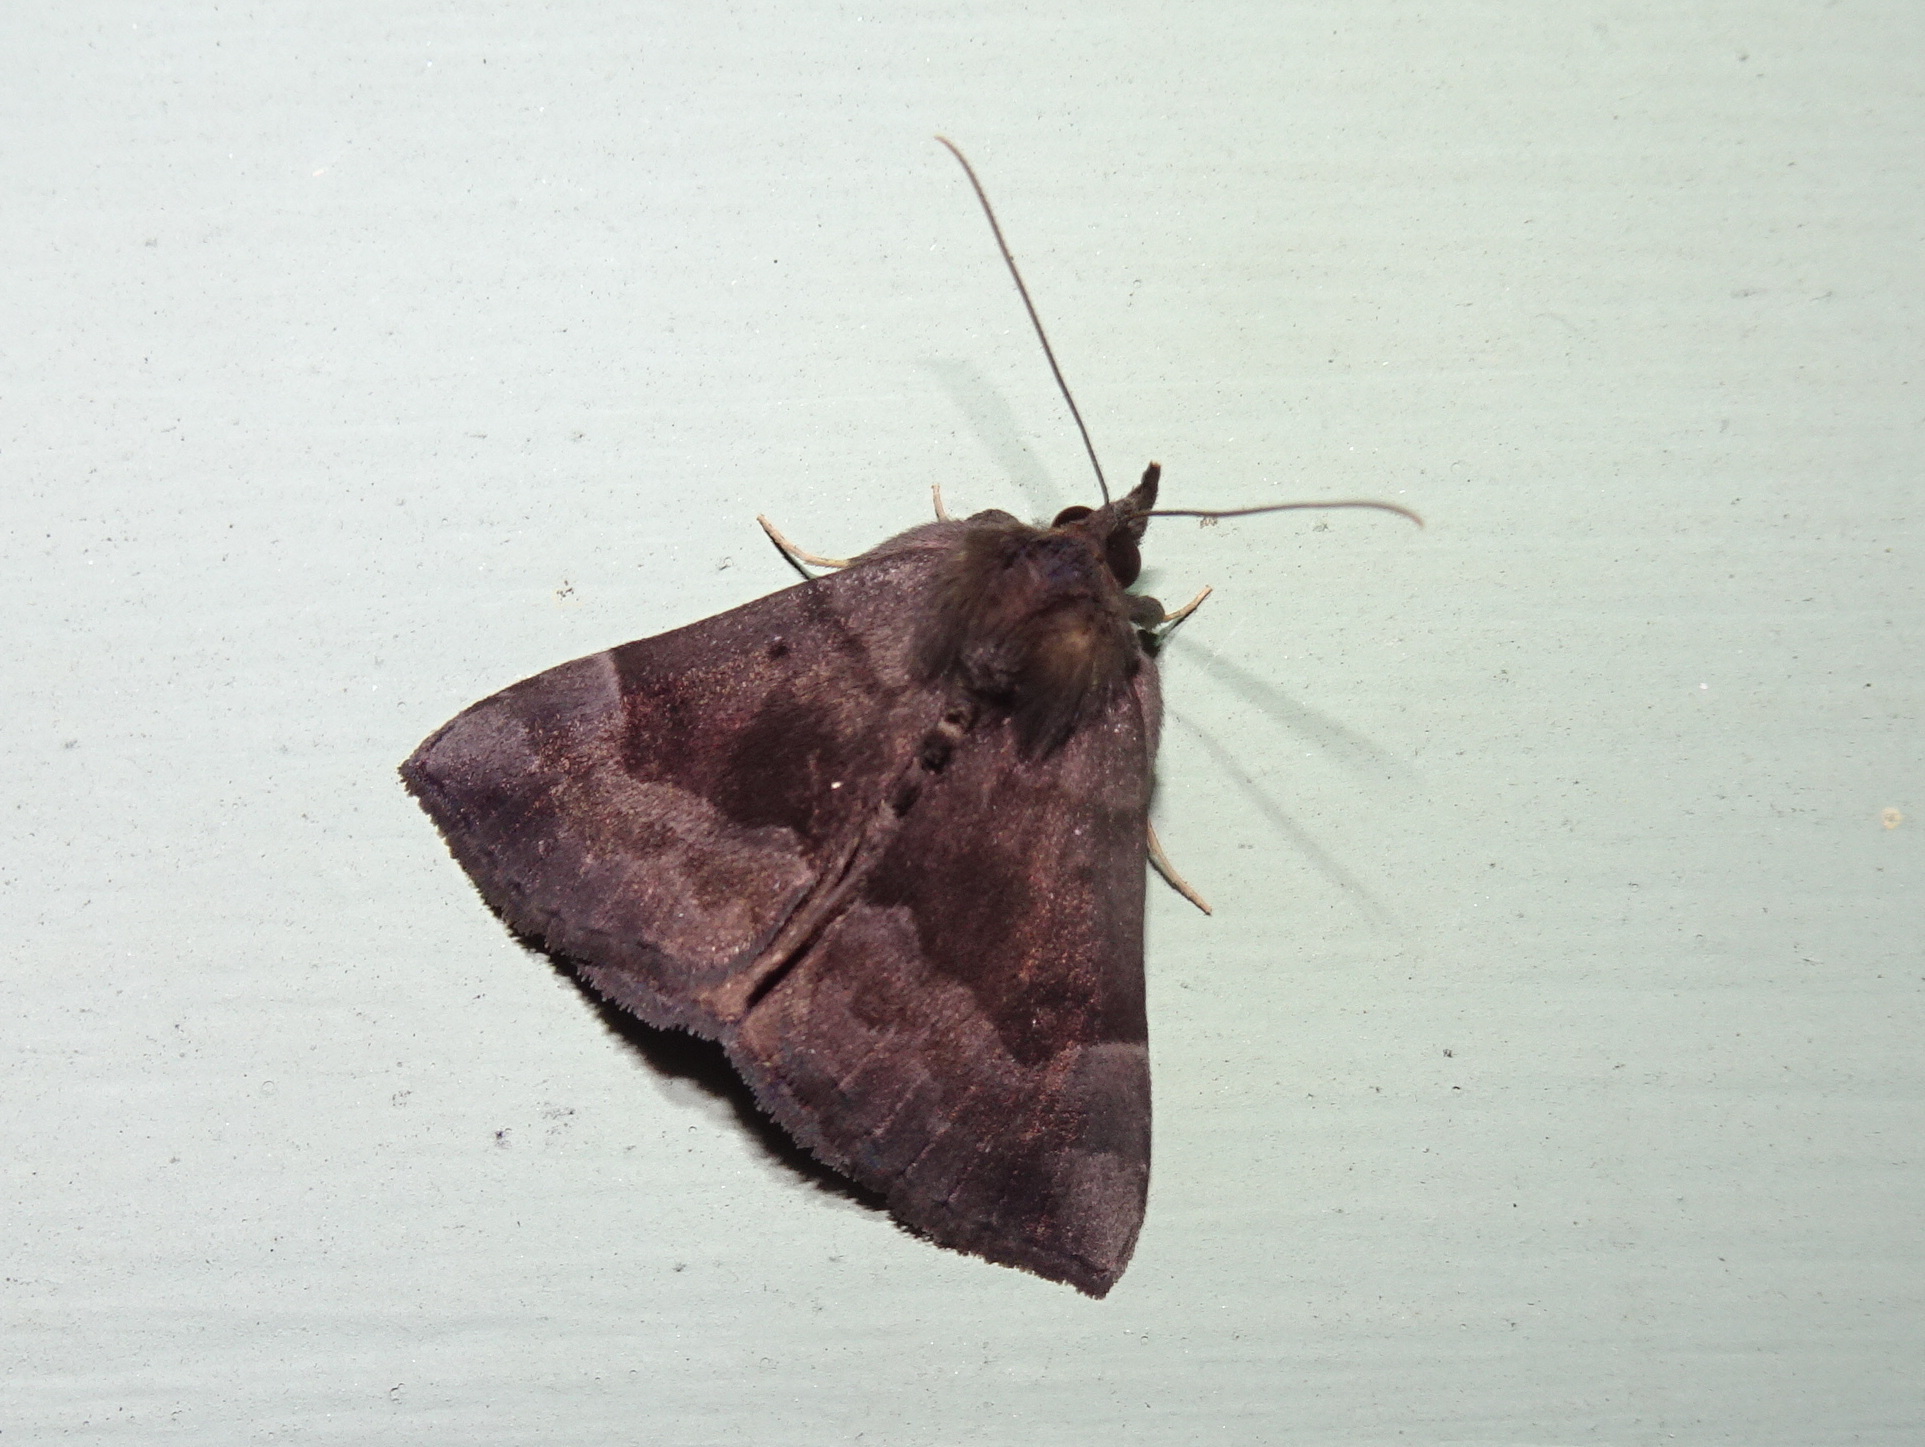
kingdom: Animalia
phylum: Arthropoda
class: Insecta
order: Lepidoptera
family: Erebidae
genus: Hypena
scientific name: Hypena madefactalis
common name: Gray-edged snout
